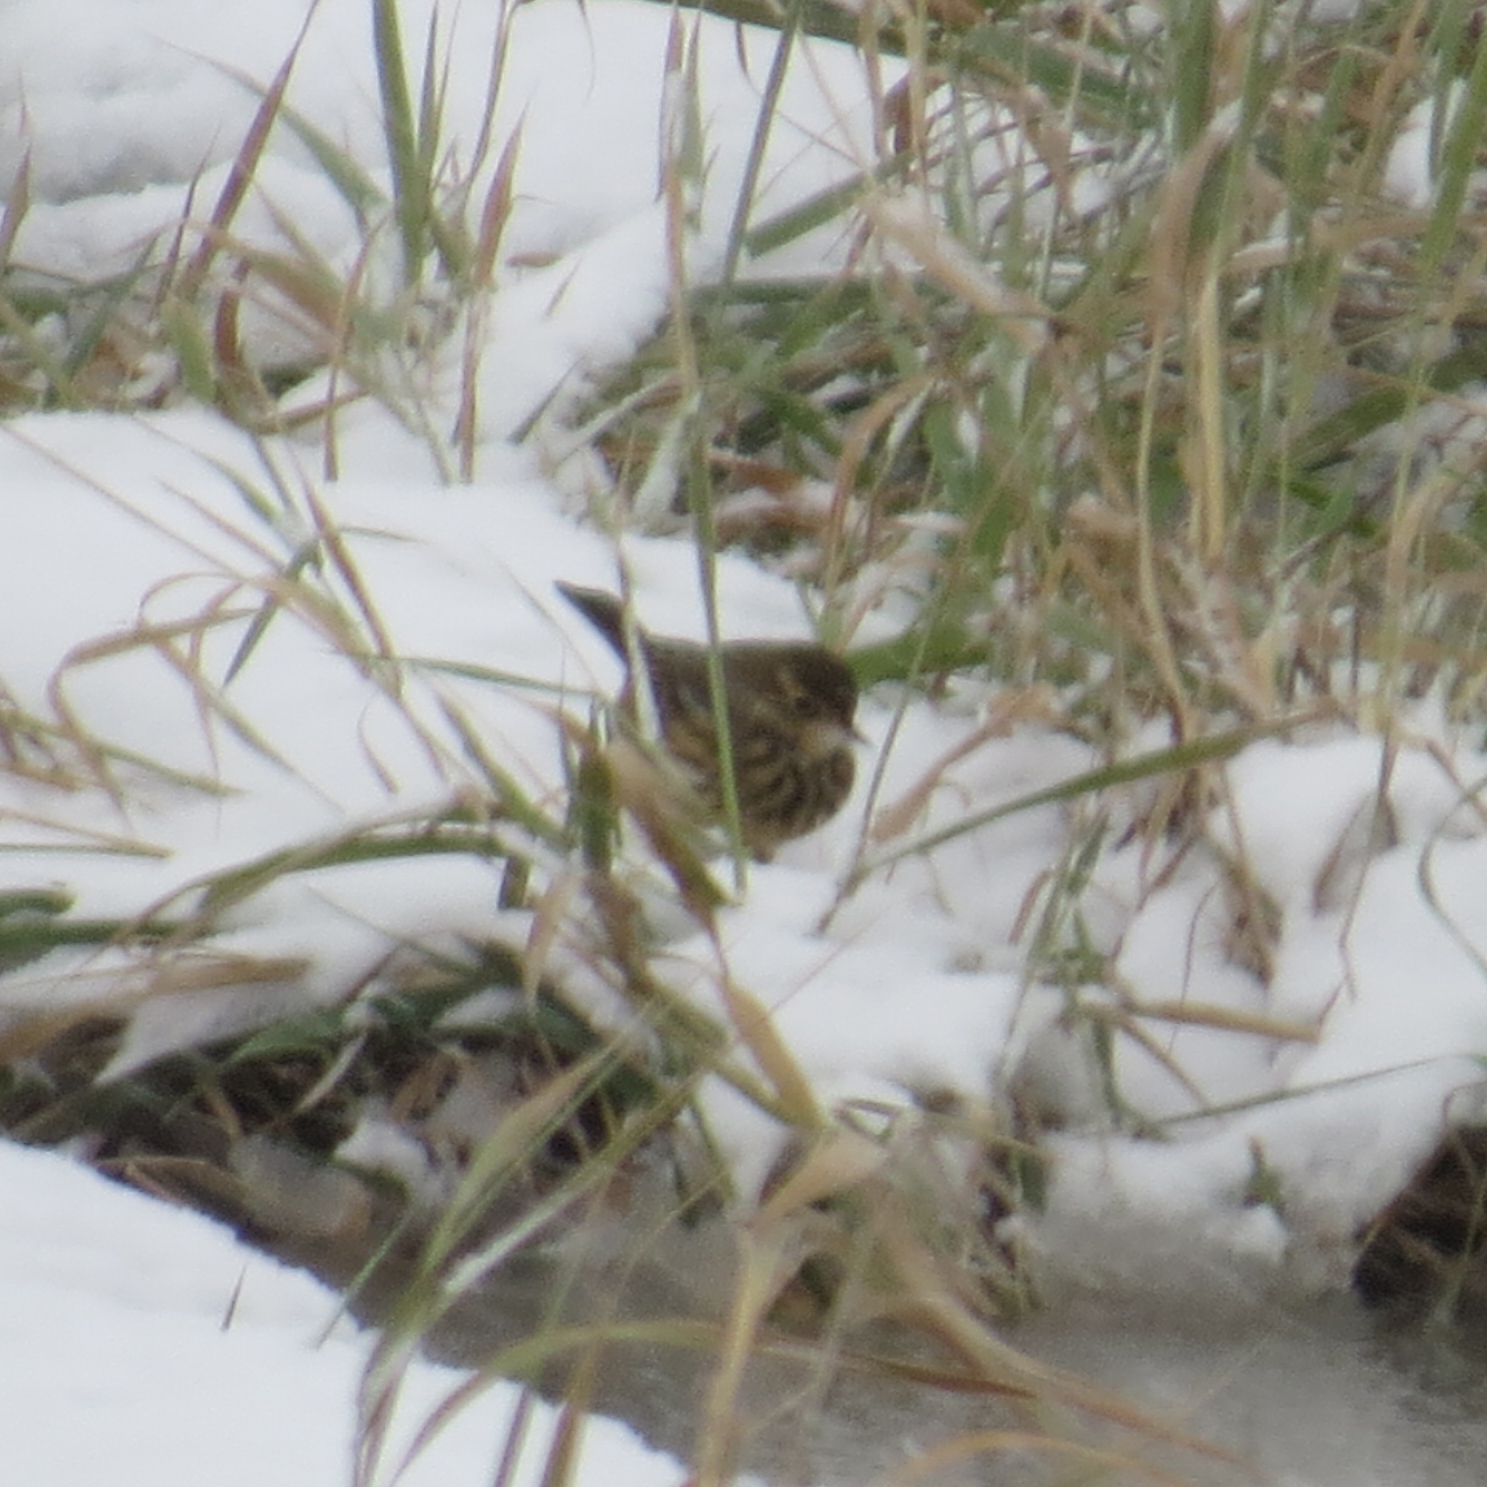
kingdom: Animalia
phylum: Chordata
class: Aves
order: Passeriformes
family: Motacillidae
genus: Anthus
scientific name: Anthus rubescens
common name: Buff-bellied pipit
